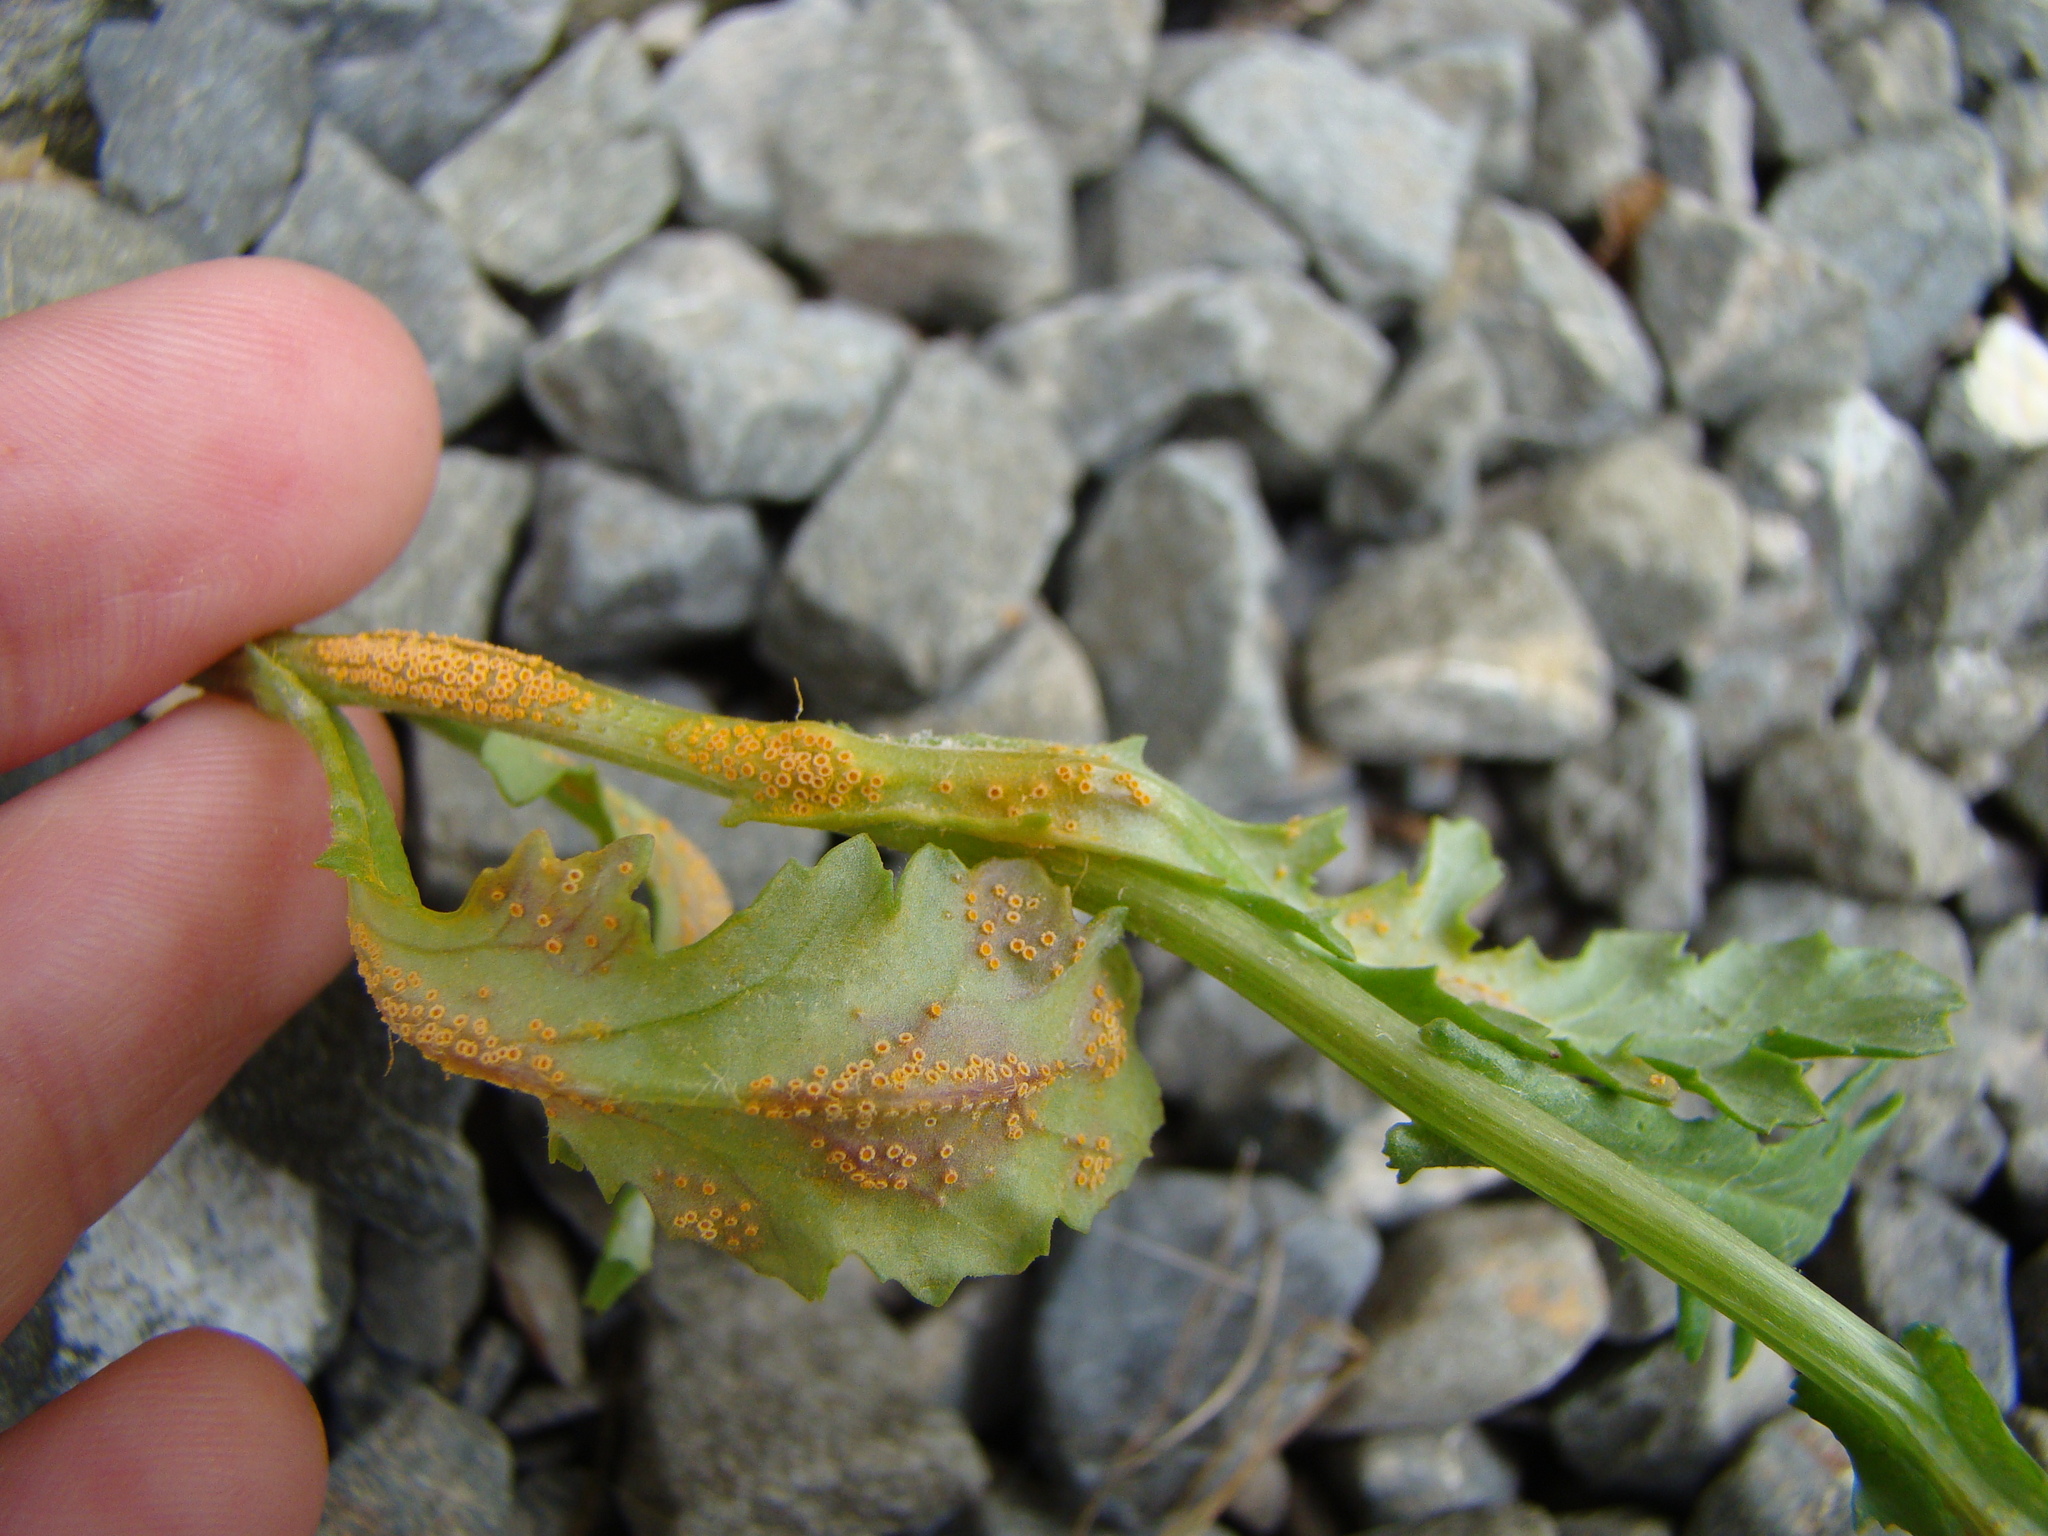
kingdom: Fungi
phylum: Basidiomycota
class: Pucciniomycetes
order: Pucciniales
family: Pucciniaceae
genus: Puccinia
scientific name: Puccinia lagenophorae
